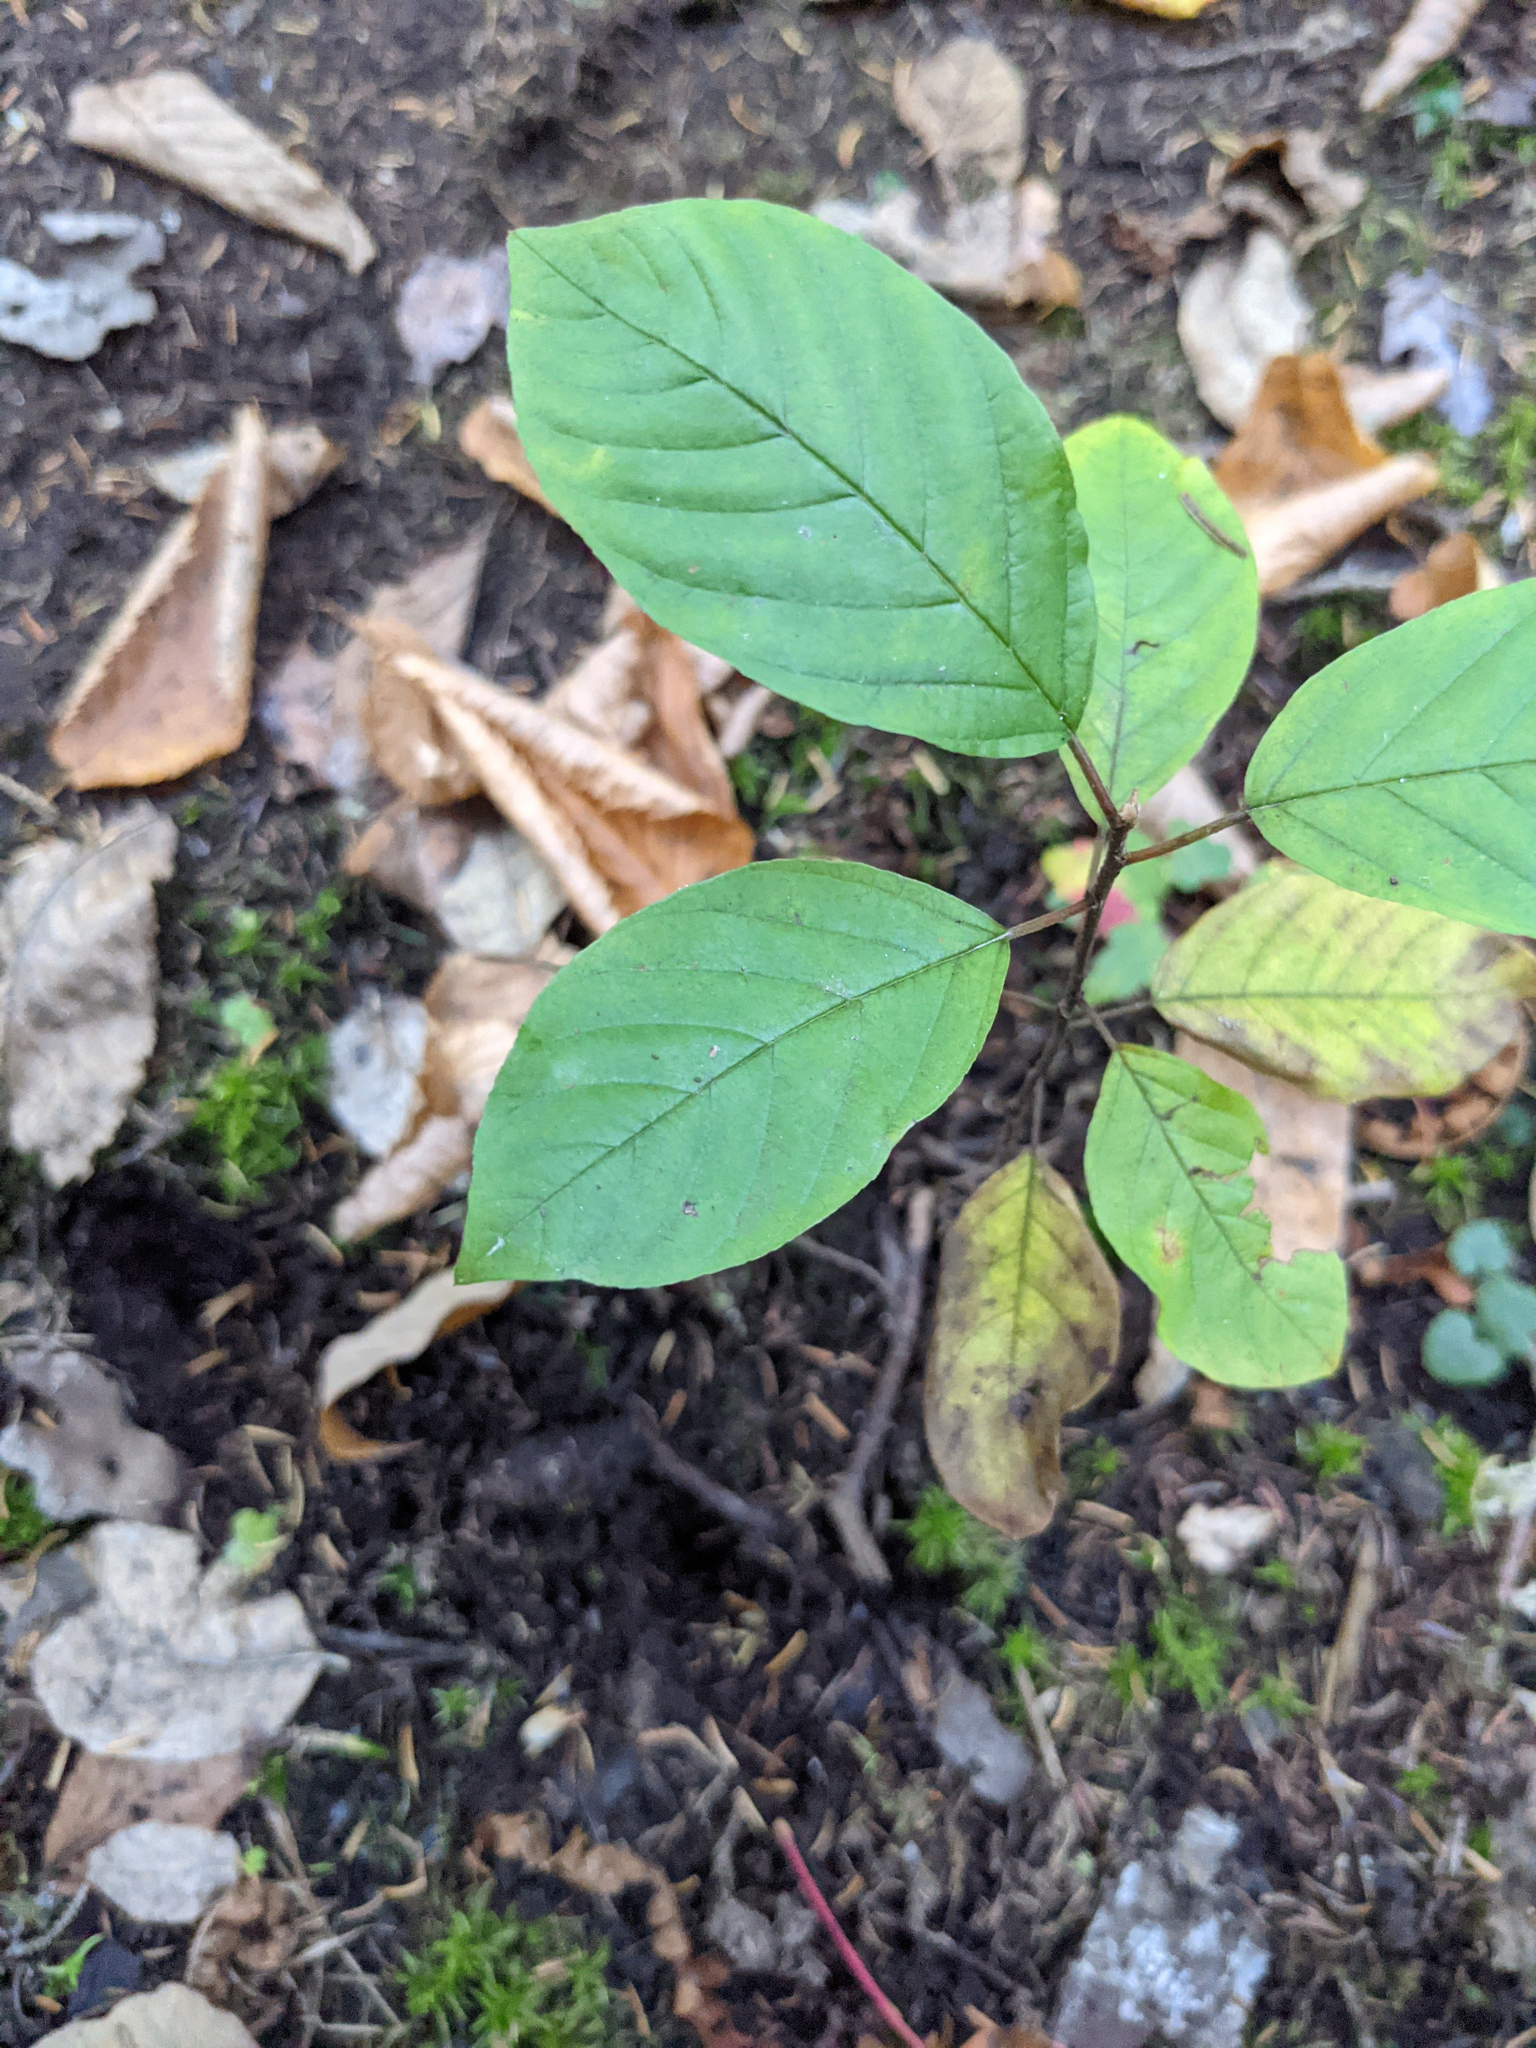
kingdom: Plantae
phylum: Tracheophyta
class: Magnoliopsida
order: Rosales
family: Rhamnaceae
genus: Frangula
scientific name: Frangula alnus
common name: Alder buckthorn
